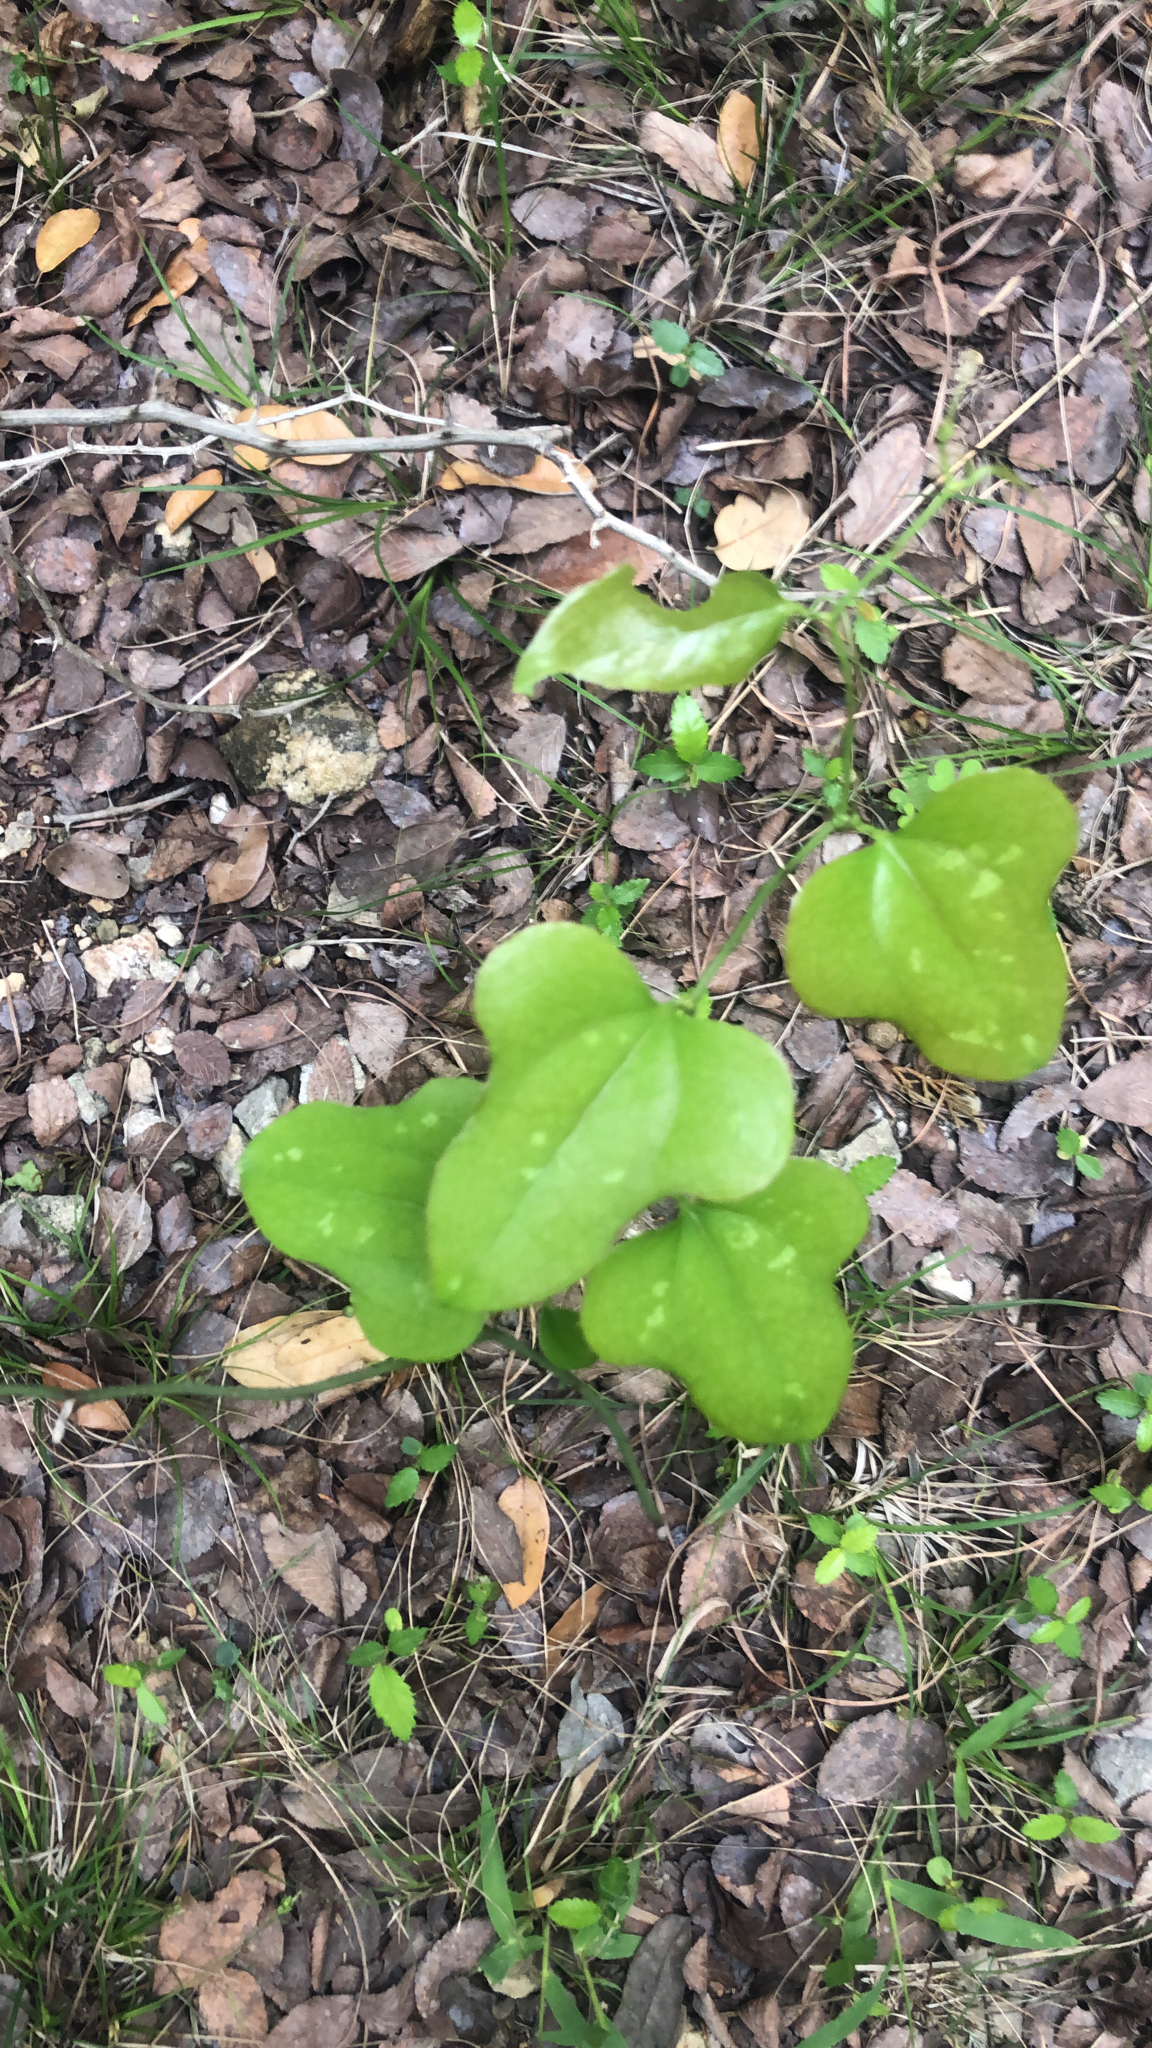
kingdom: Plantae
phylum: Tracheophyta
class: Liliopsida
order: Liliales
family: Smilacaceae
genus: Smilax
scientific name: Smilax bona-nox
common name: Catbrier
